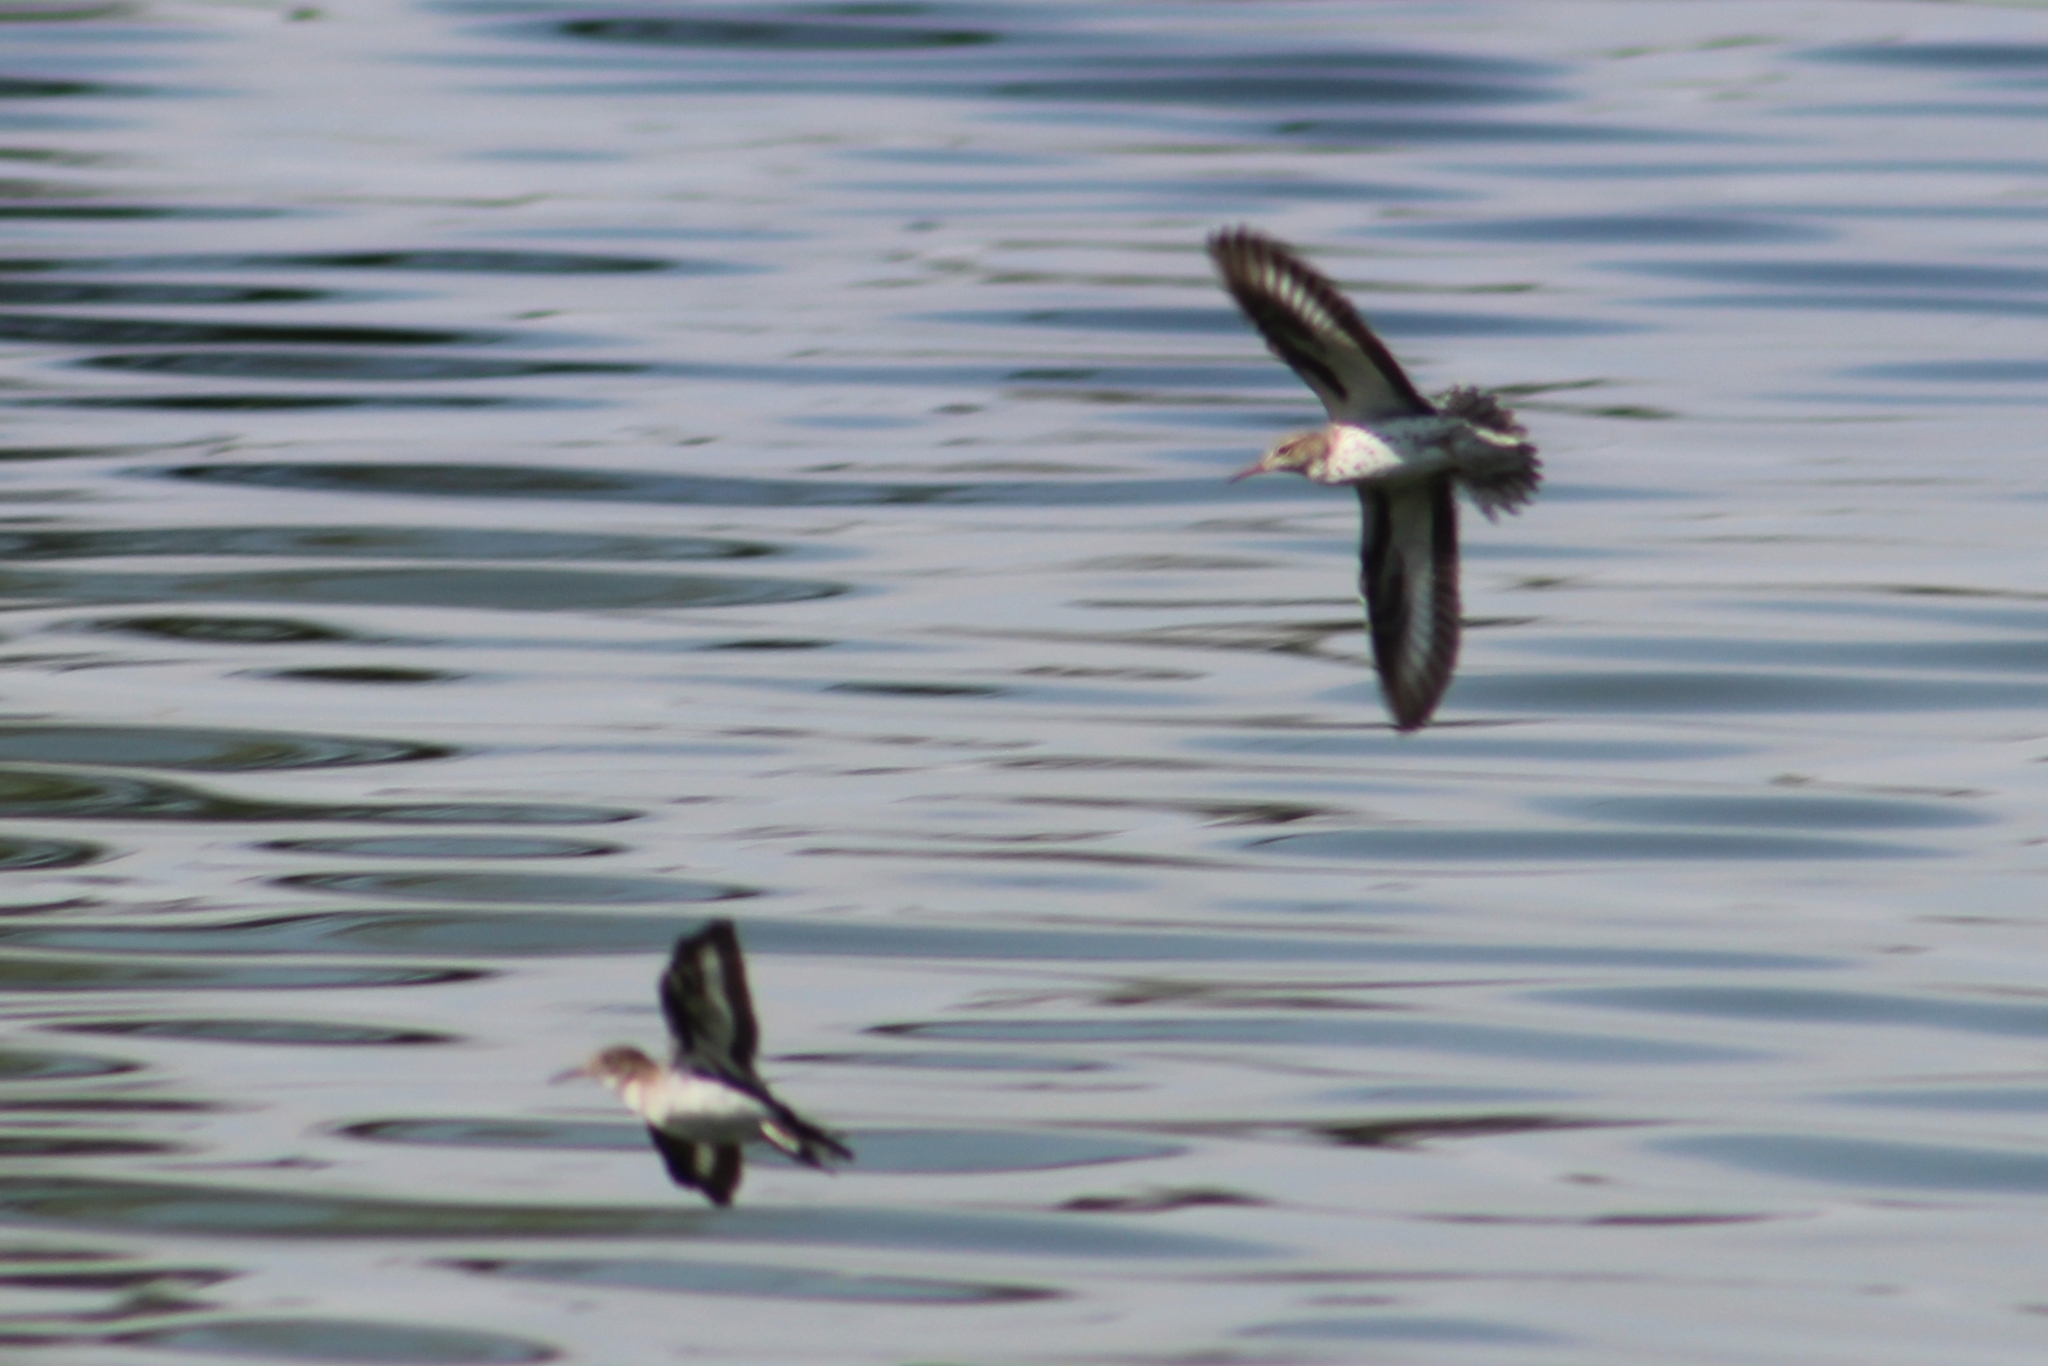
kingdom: Animalia
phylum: Chordata
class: Aves
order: Charadriiformes
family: Scolopacidae
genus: Actitis
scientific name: Actitis macularius
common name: Spotted sandpiper
